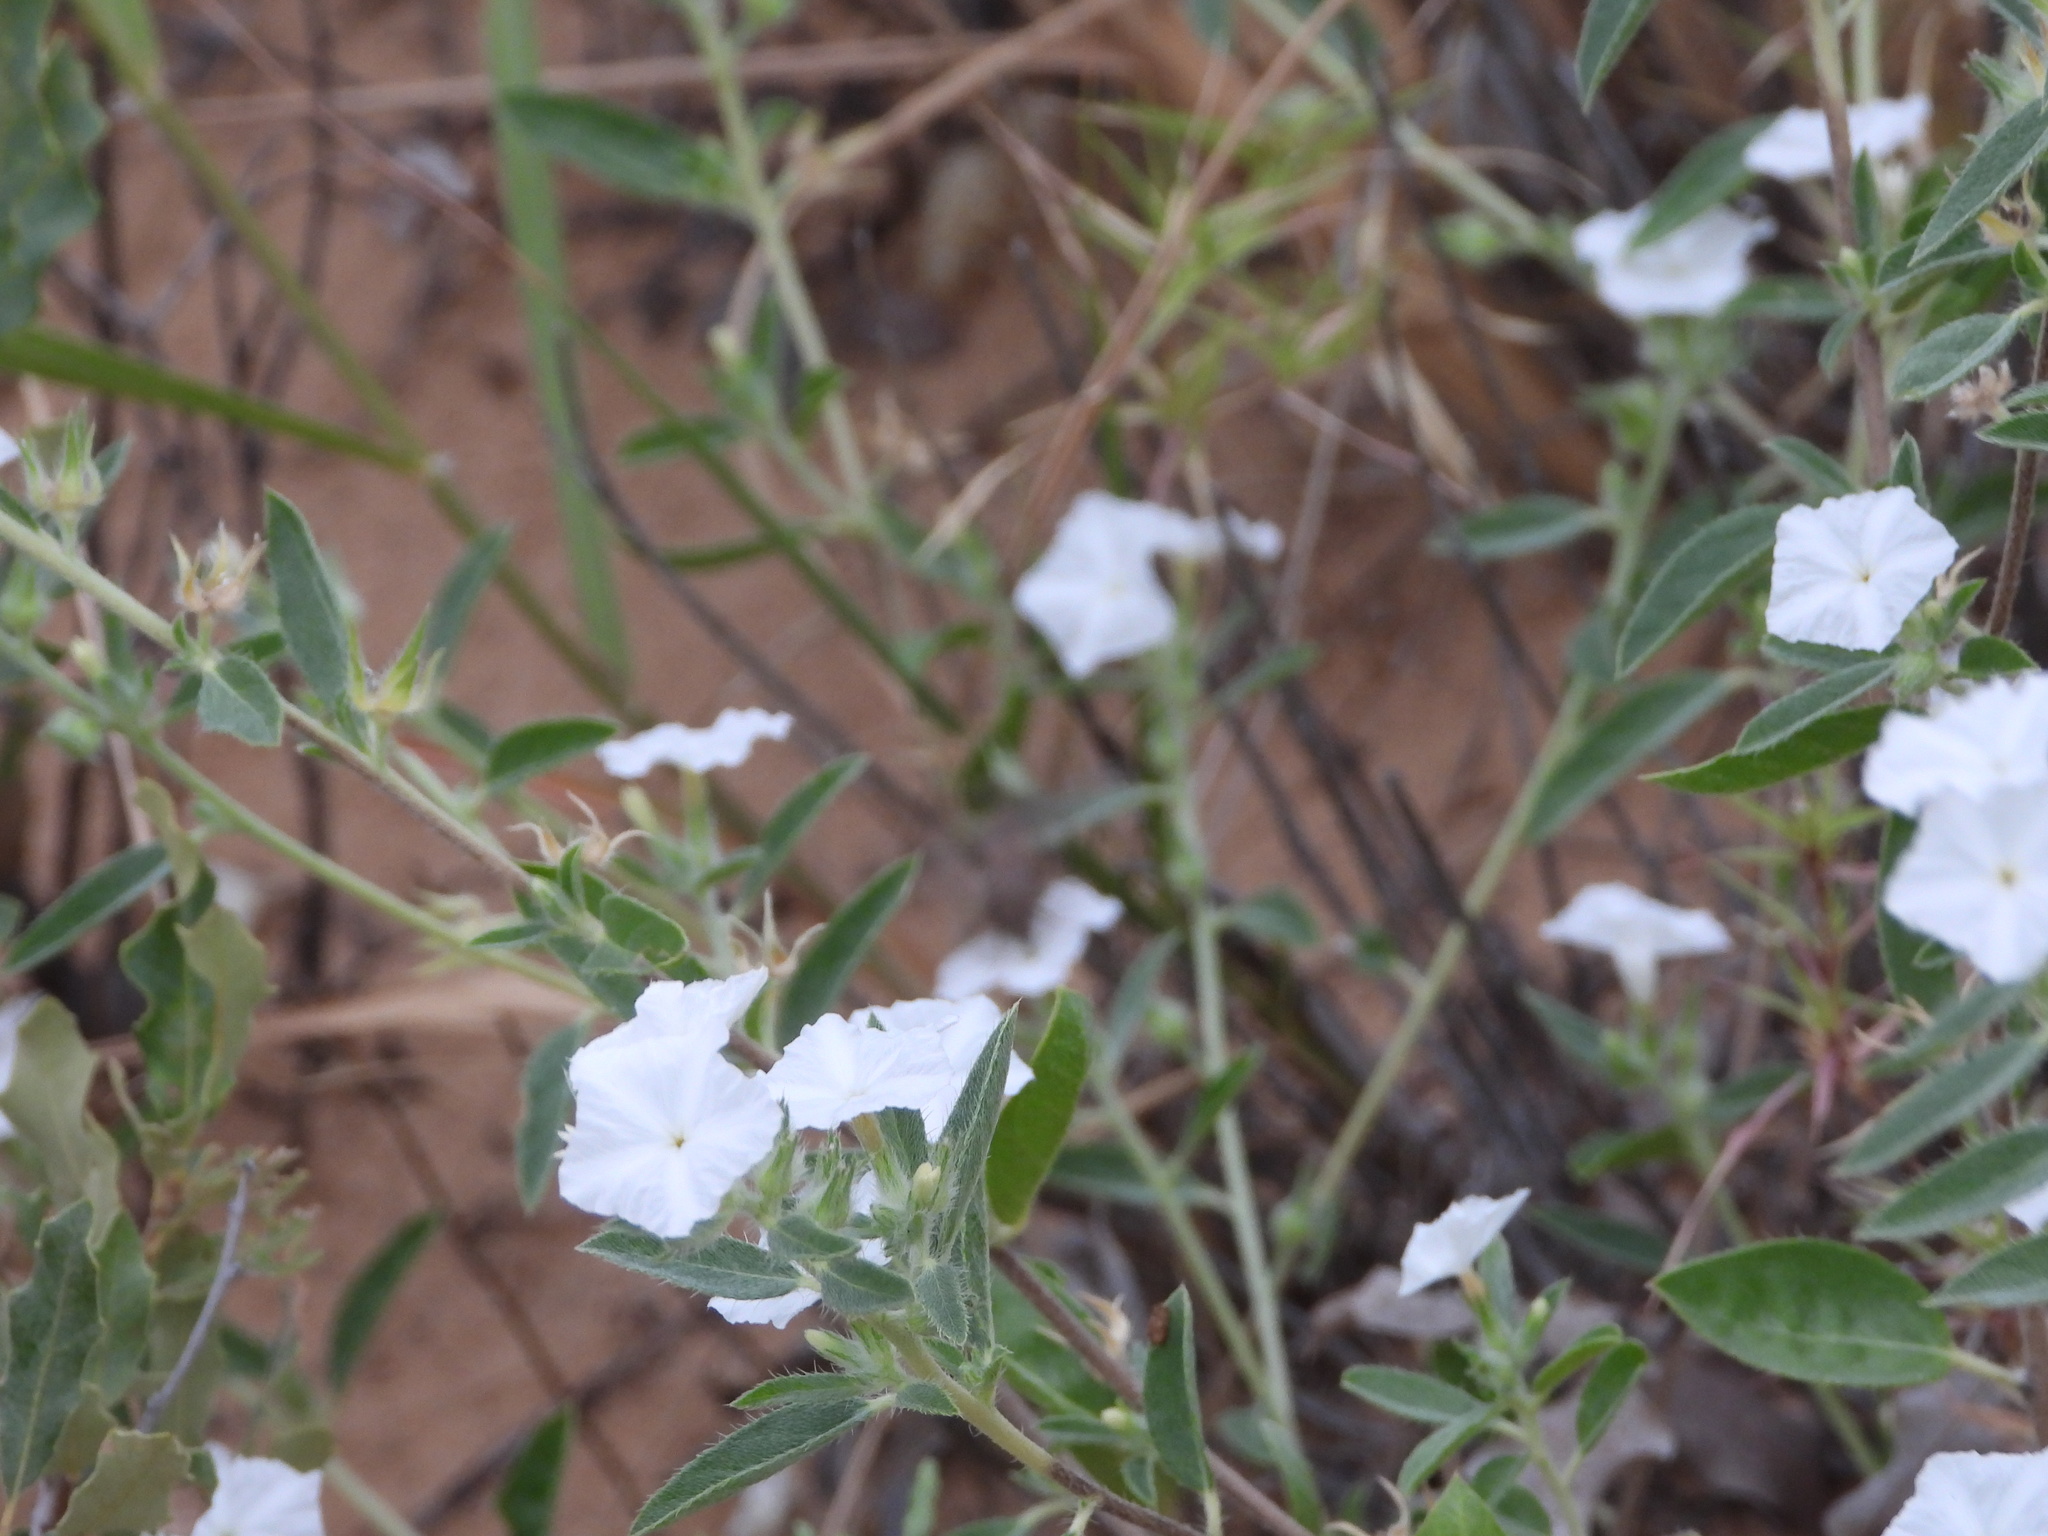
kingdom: Plantae
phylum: Tracheophyta
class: Magnoliopsida
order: Boraginales
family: Heliotropiaceae
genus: Euploca
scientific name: Euploca convolvulacea
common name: Bindweed heliotrope
